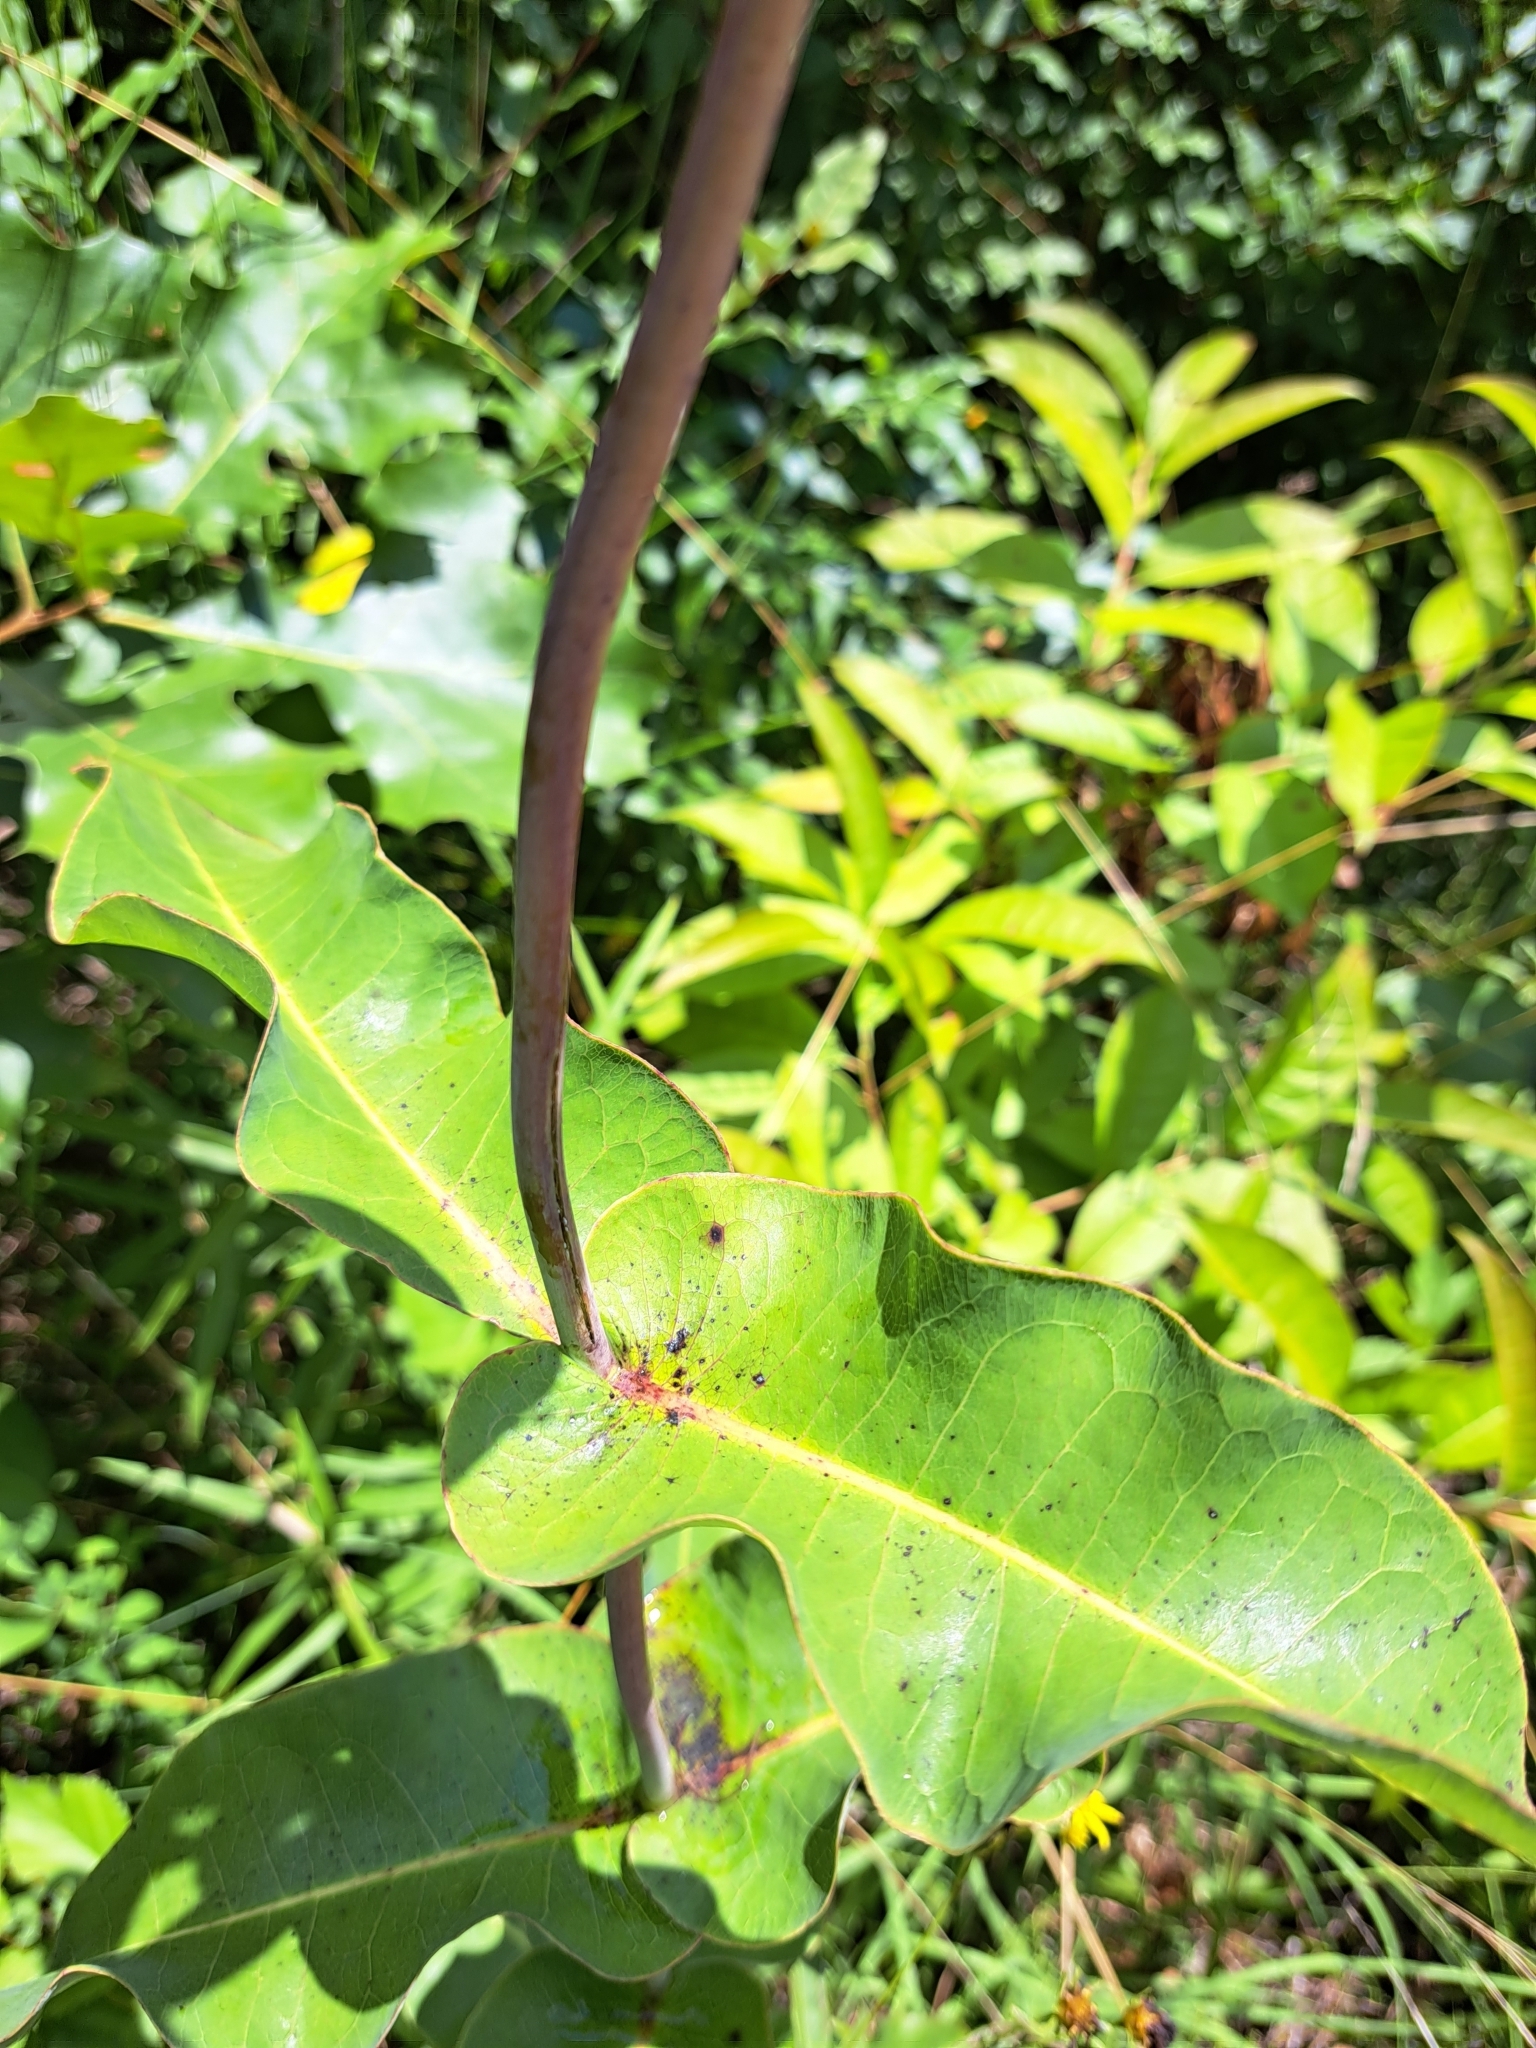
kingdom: Plantae
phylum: Tracheophyta
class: Magnoliopsida
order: Gentianales
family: Apocynaceae
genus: Asclepias
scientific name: Asclepias amplexicaulis
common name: Blunt-leaf milkweed
